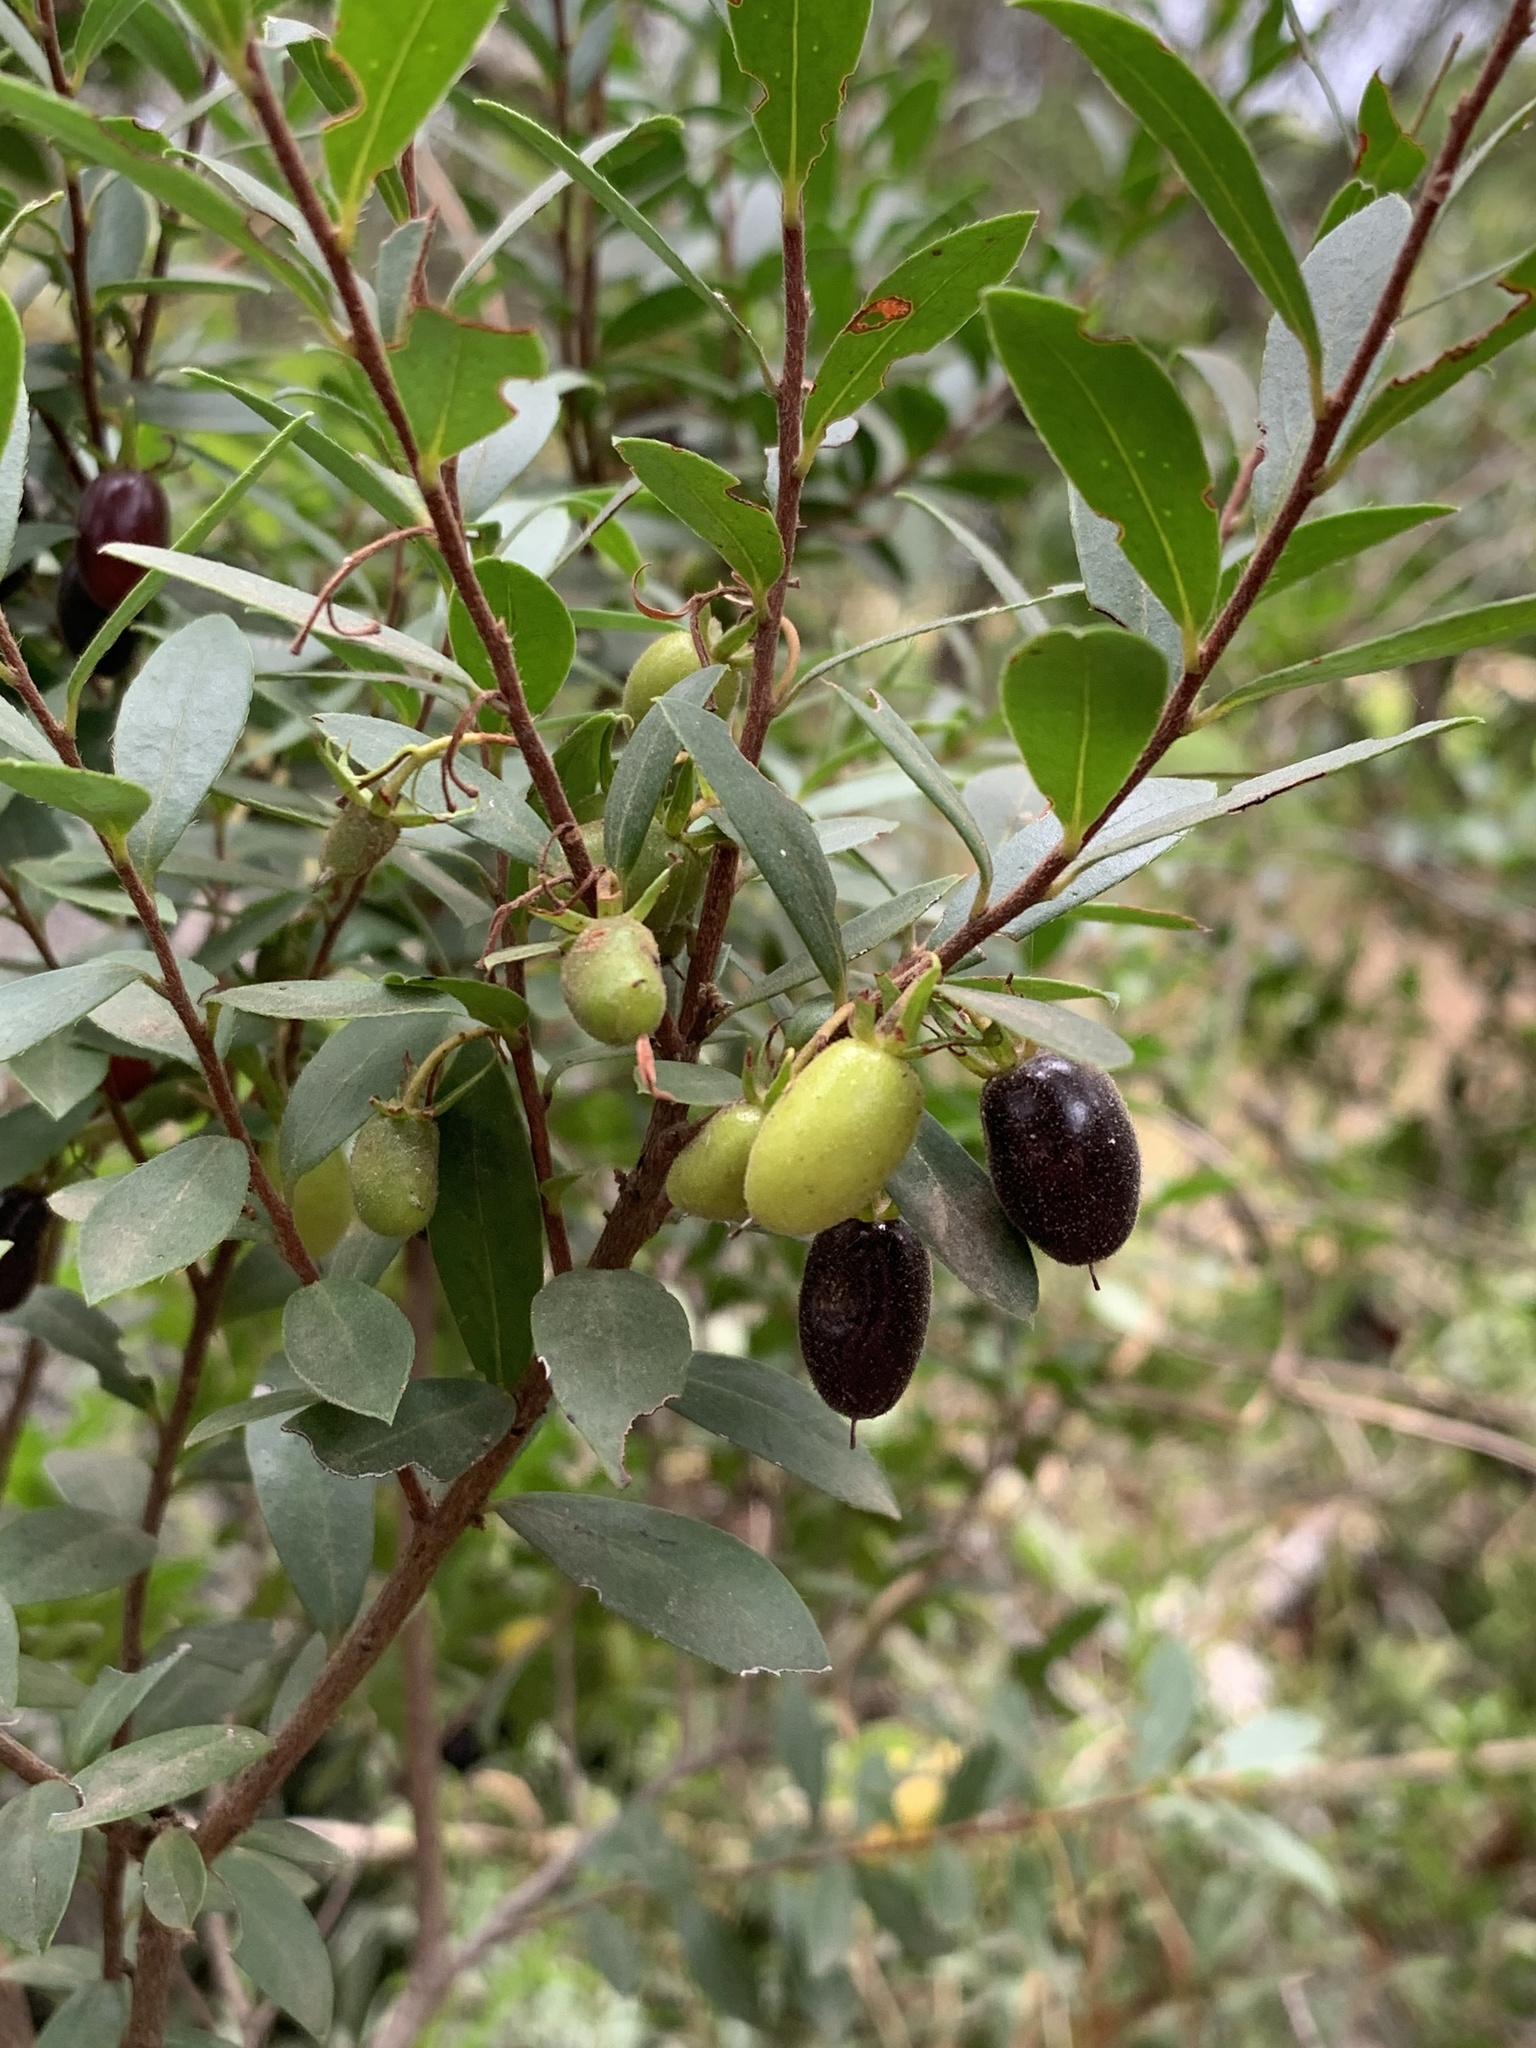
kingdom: Plantae
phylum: Tracheophyta
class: Magnoliopsida
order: Ericales
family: Ebenaceae
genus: Diospyros
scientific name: Diospyros glabra
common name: Fynbos star apple
